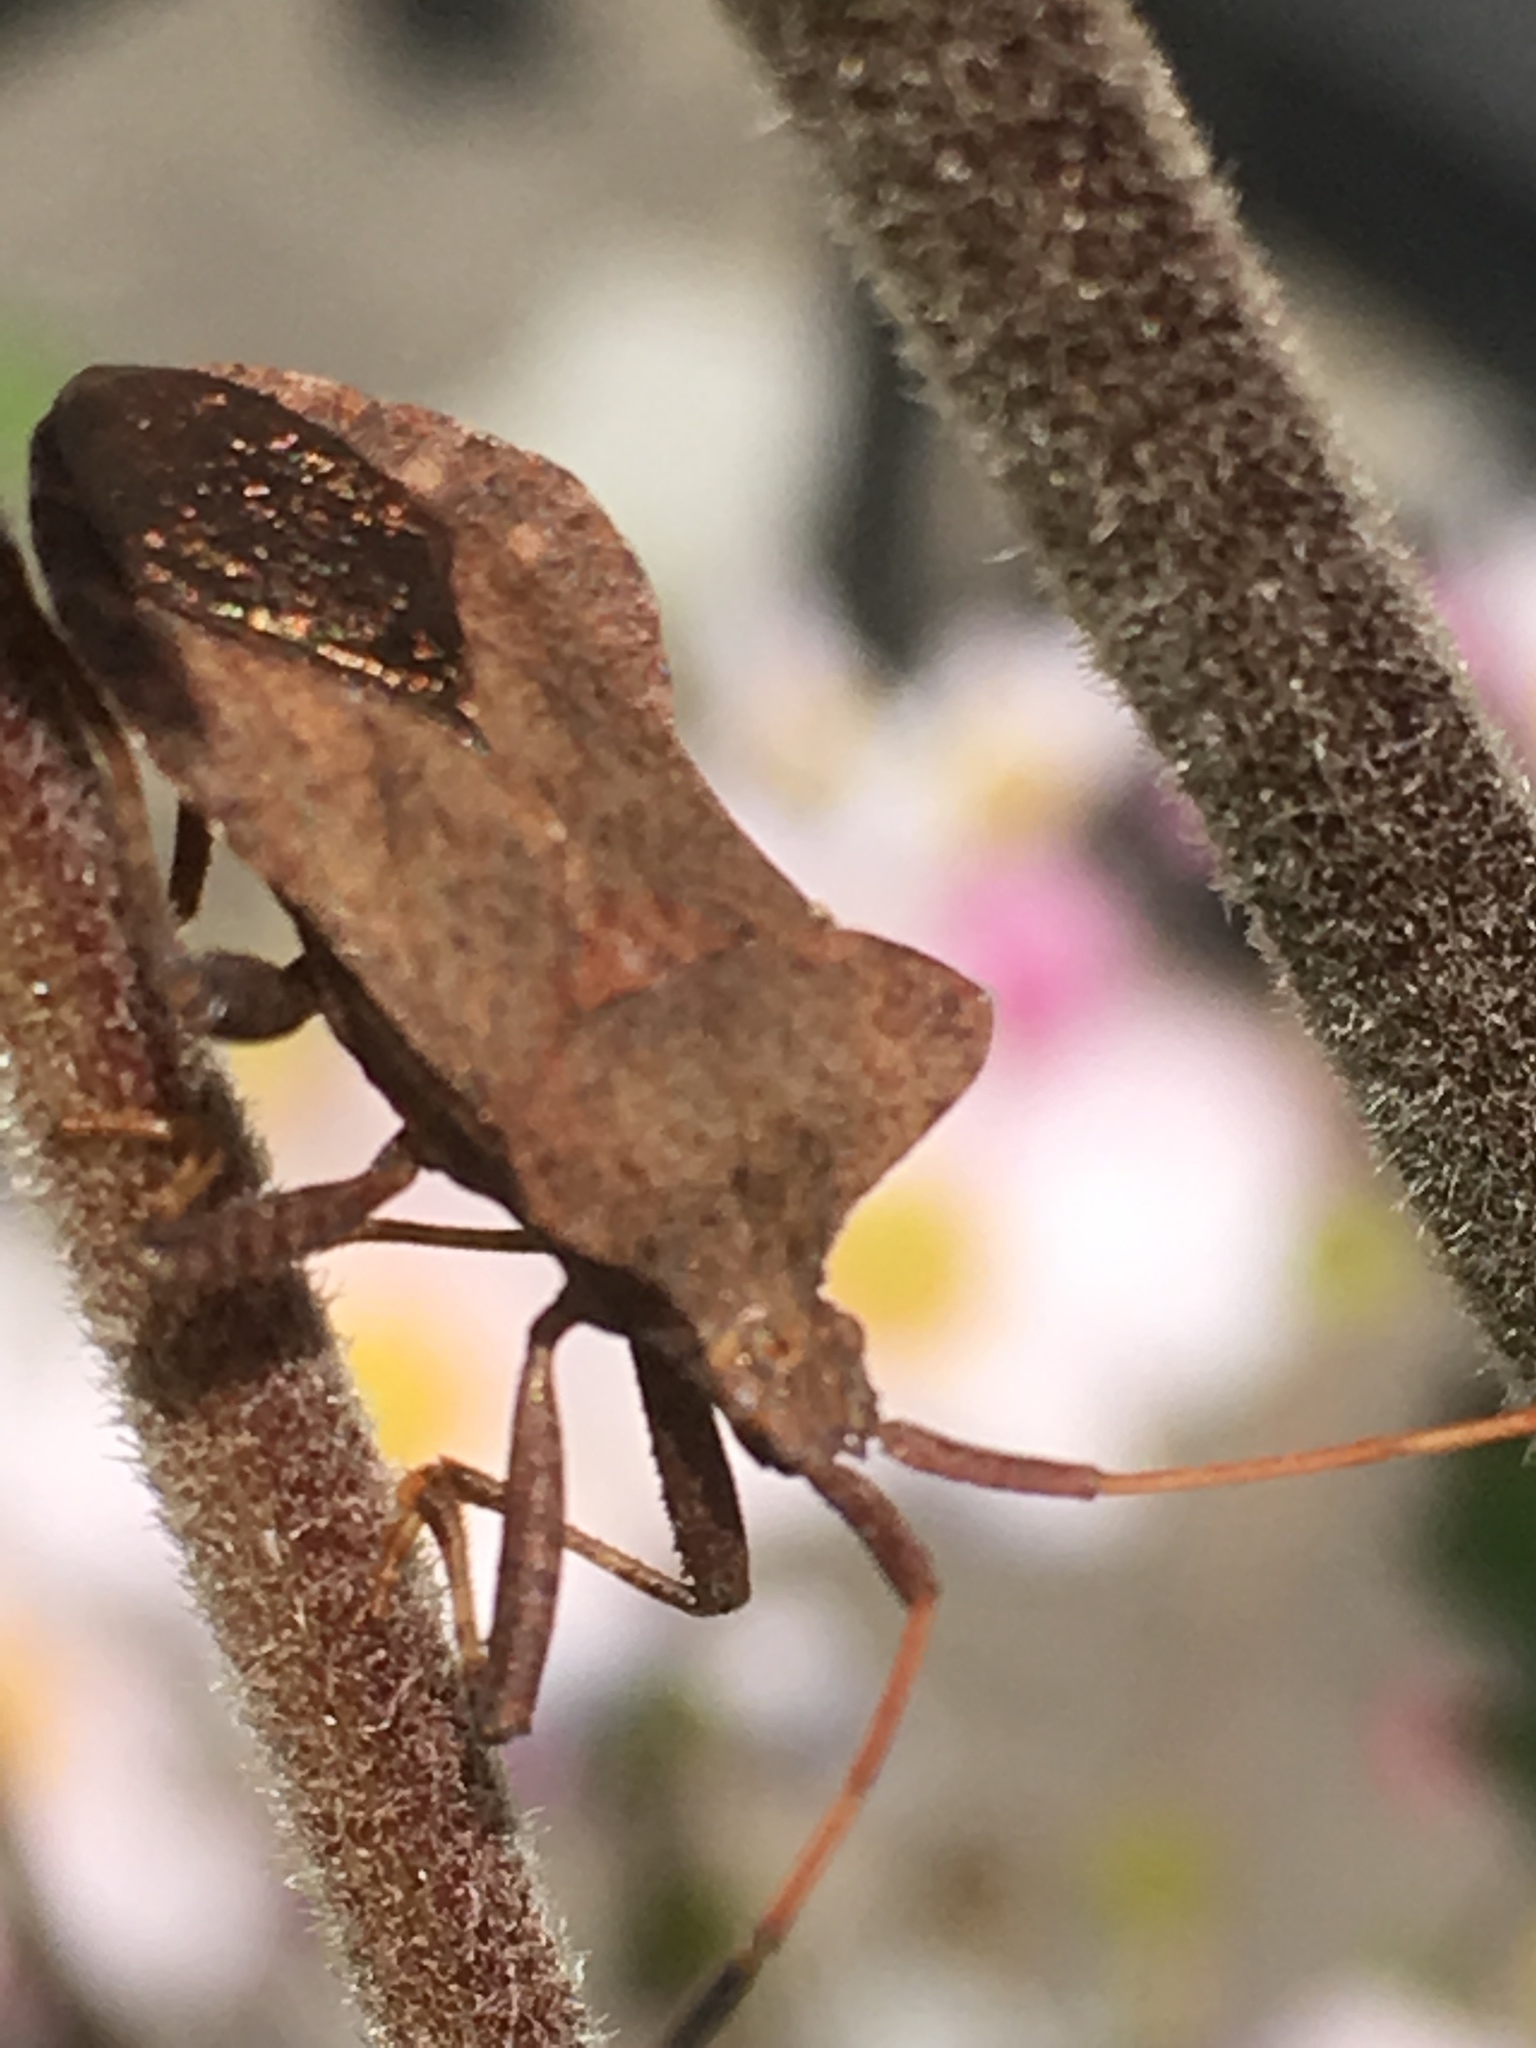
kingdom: Animalia
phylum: Arthropoda
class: Insecta
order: Hemiptera
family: Coreidae
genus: Coreus
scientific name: Coreus marginatus
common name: Dock bug
